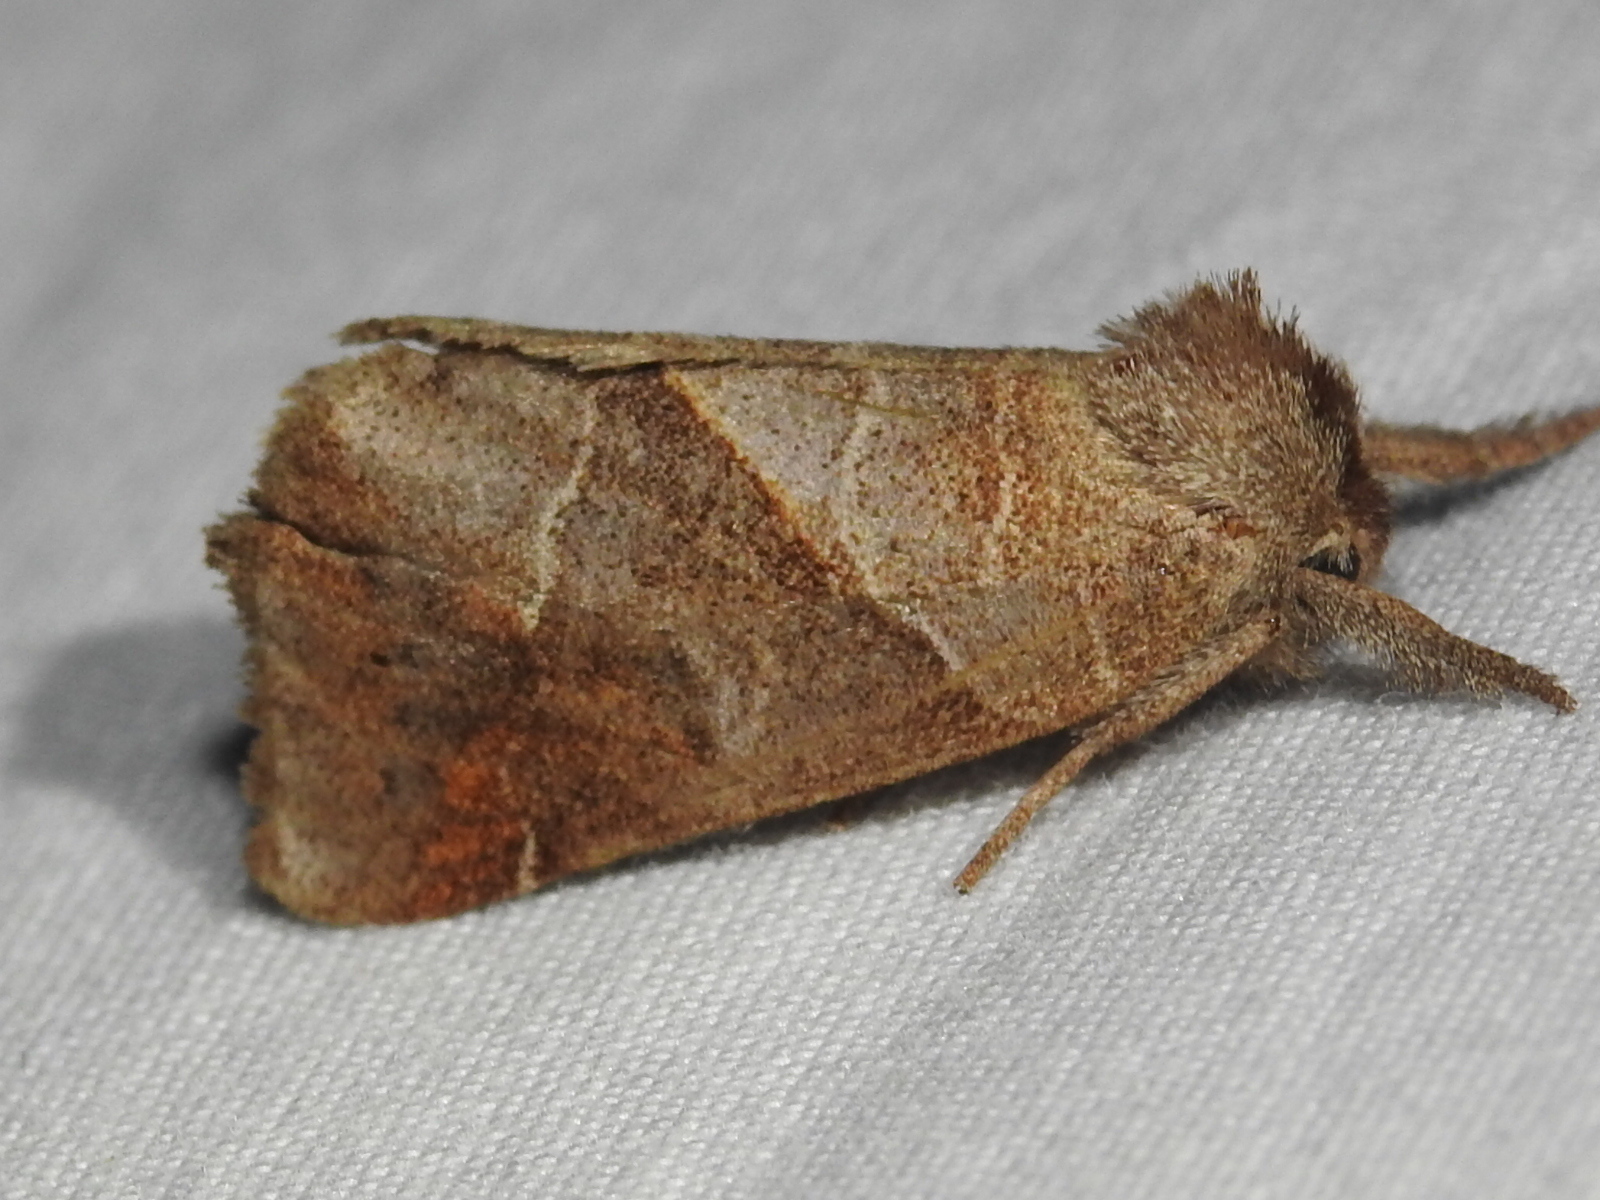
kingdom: Animalia
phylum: Arthropoda
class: Insecta
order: Lepidoptera
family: Notodontidae
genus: Clostera
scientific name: Clostera inclusa
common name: Angle-lined prominent
